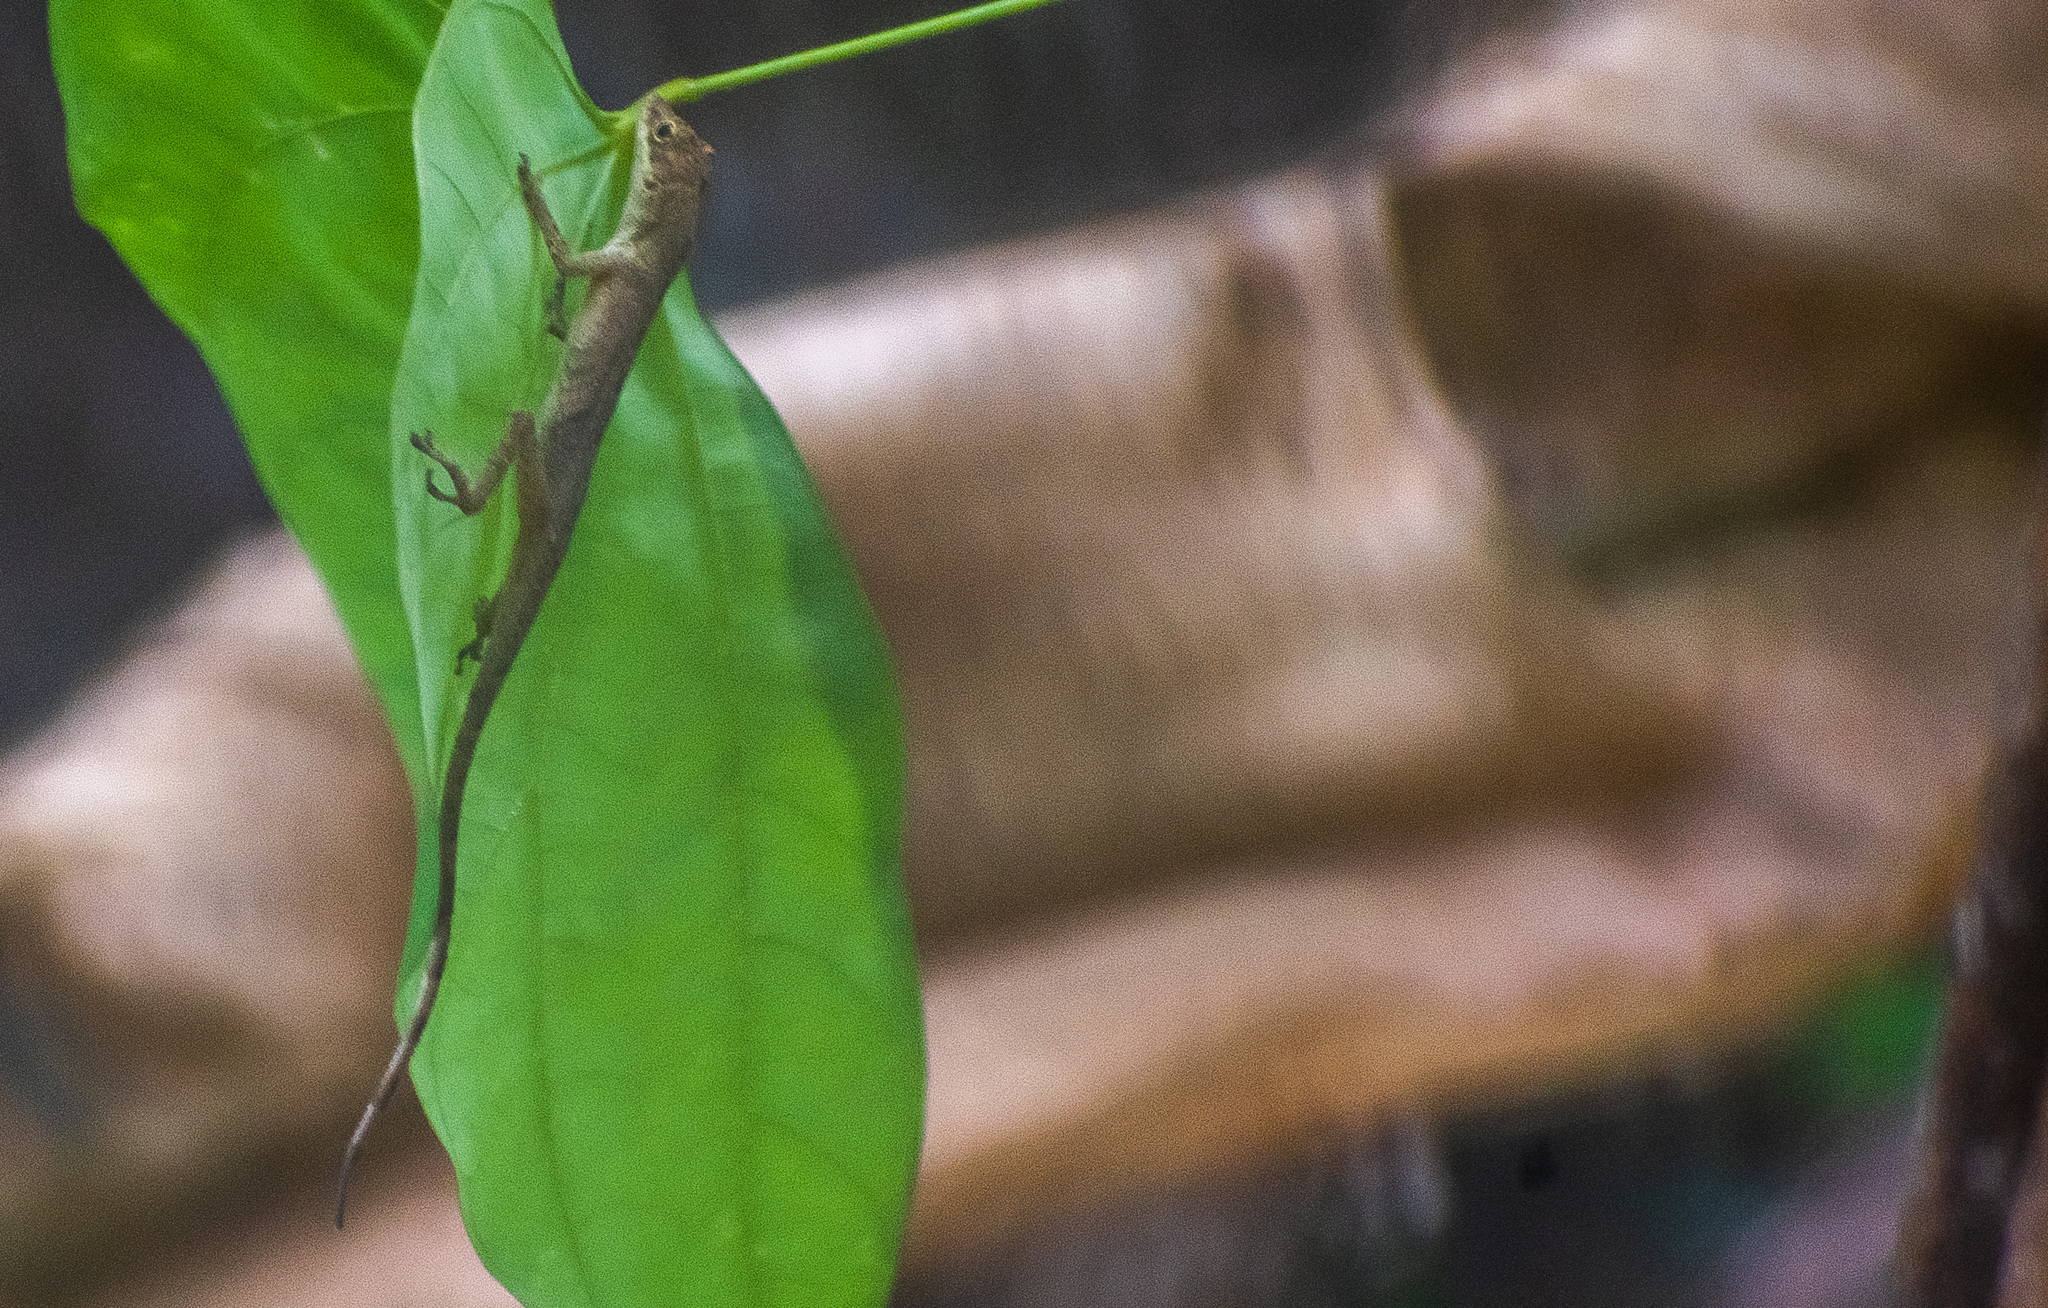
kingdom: Animalia
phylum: Chordata
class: Squamata
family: Dactyloidae
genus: Anolis
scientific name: Anolis fuscoauratus
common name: Brown-eared anole
